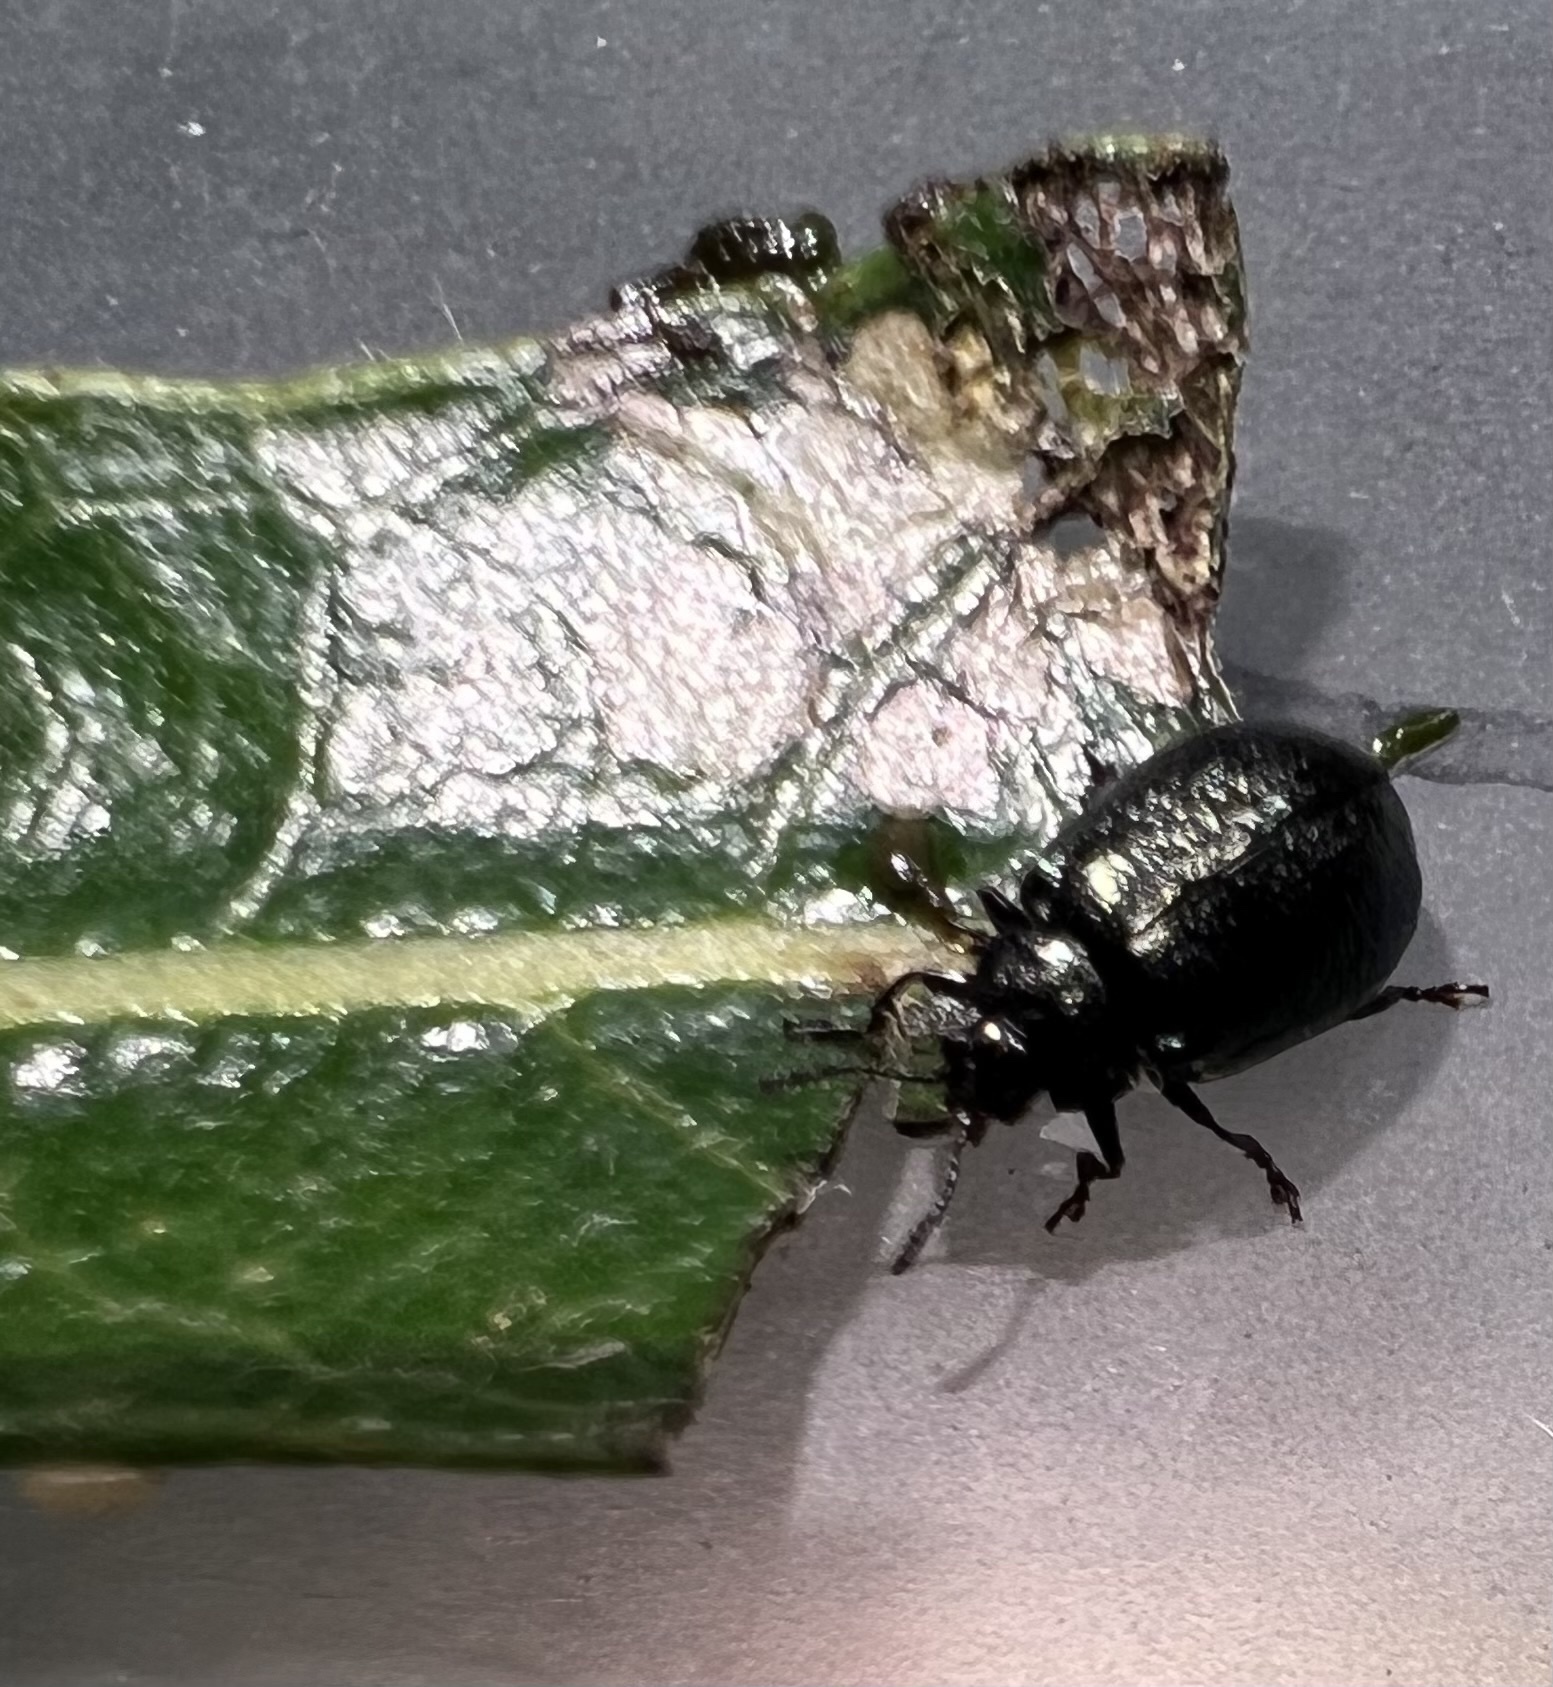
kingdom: Animalia
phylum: Arthropoda
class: Insecta
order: Coleoptera
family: Chrysomelidae
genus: Plagiodera
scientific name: Plagiodera californica
